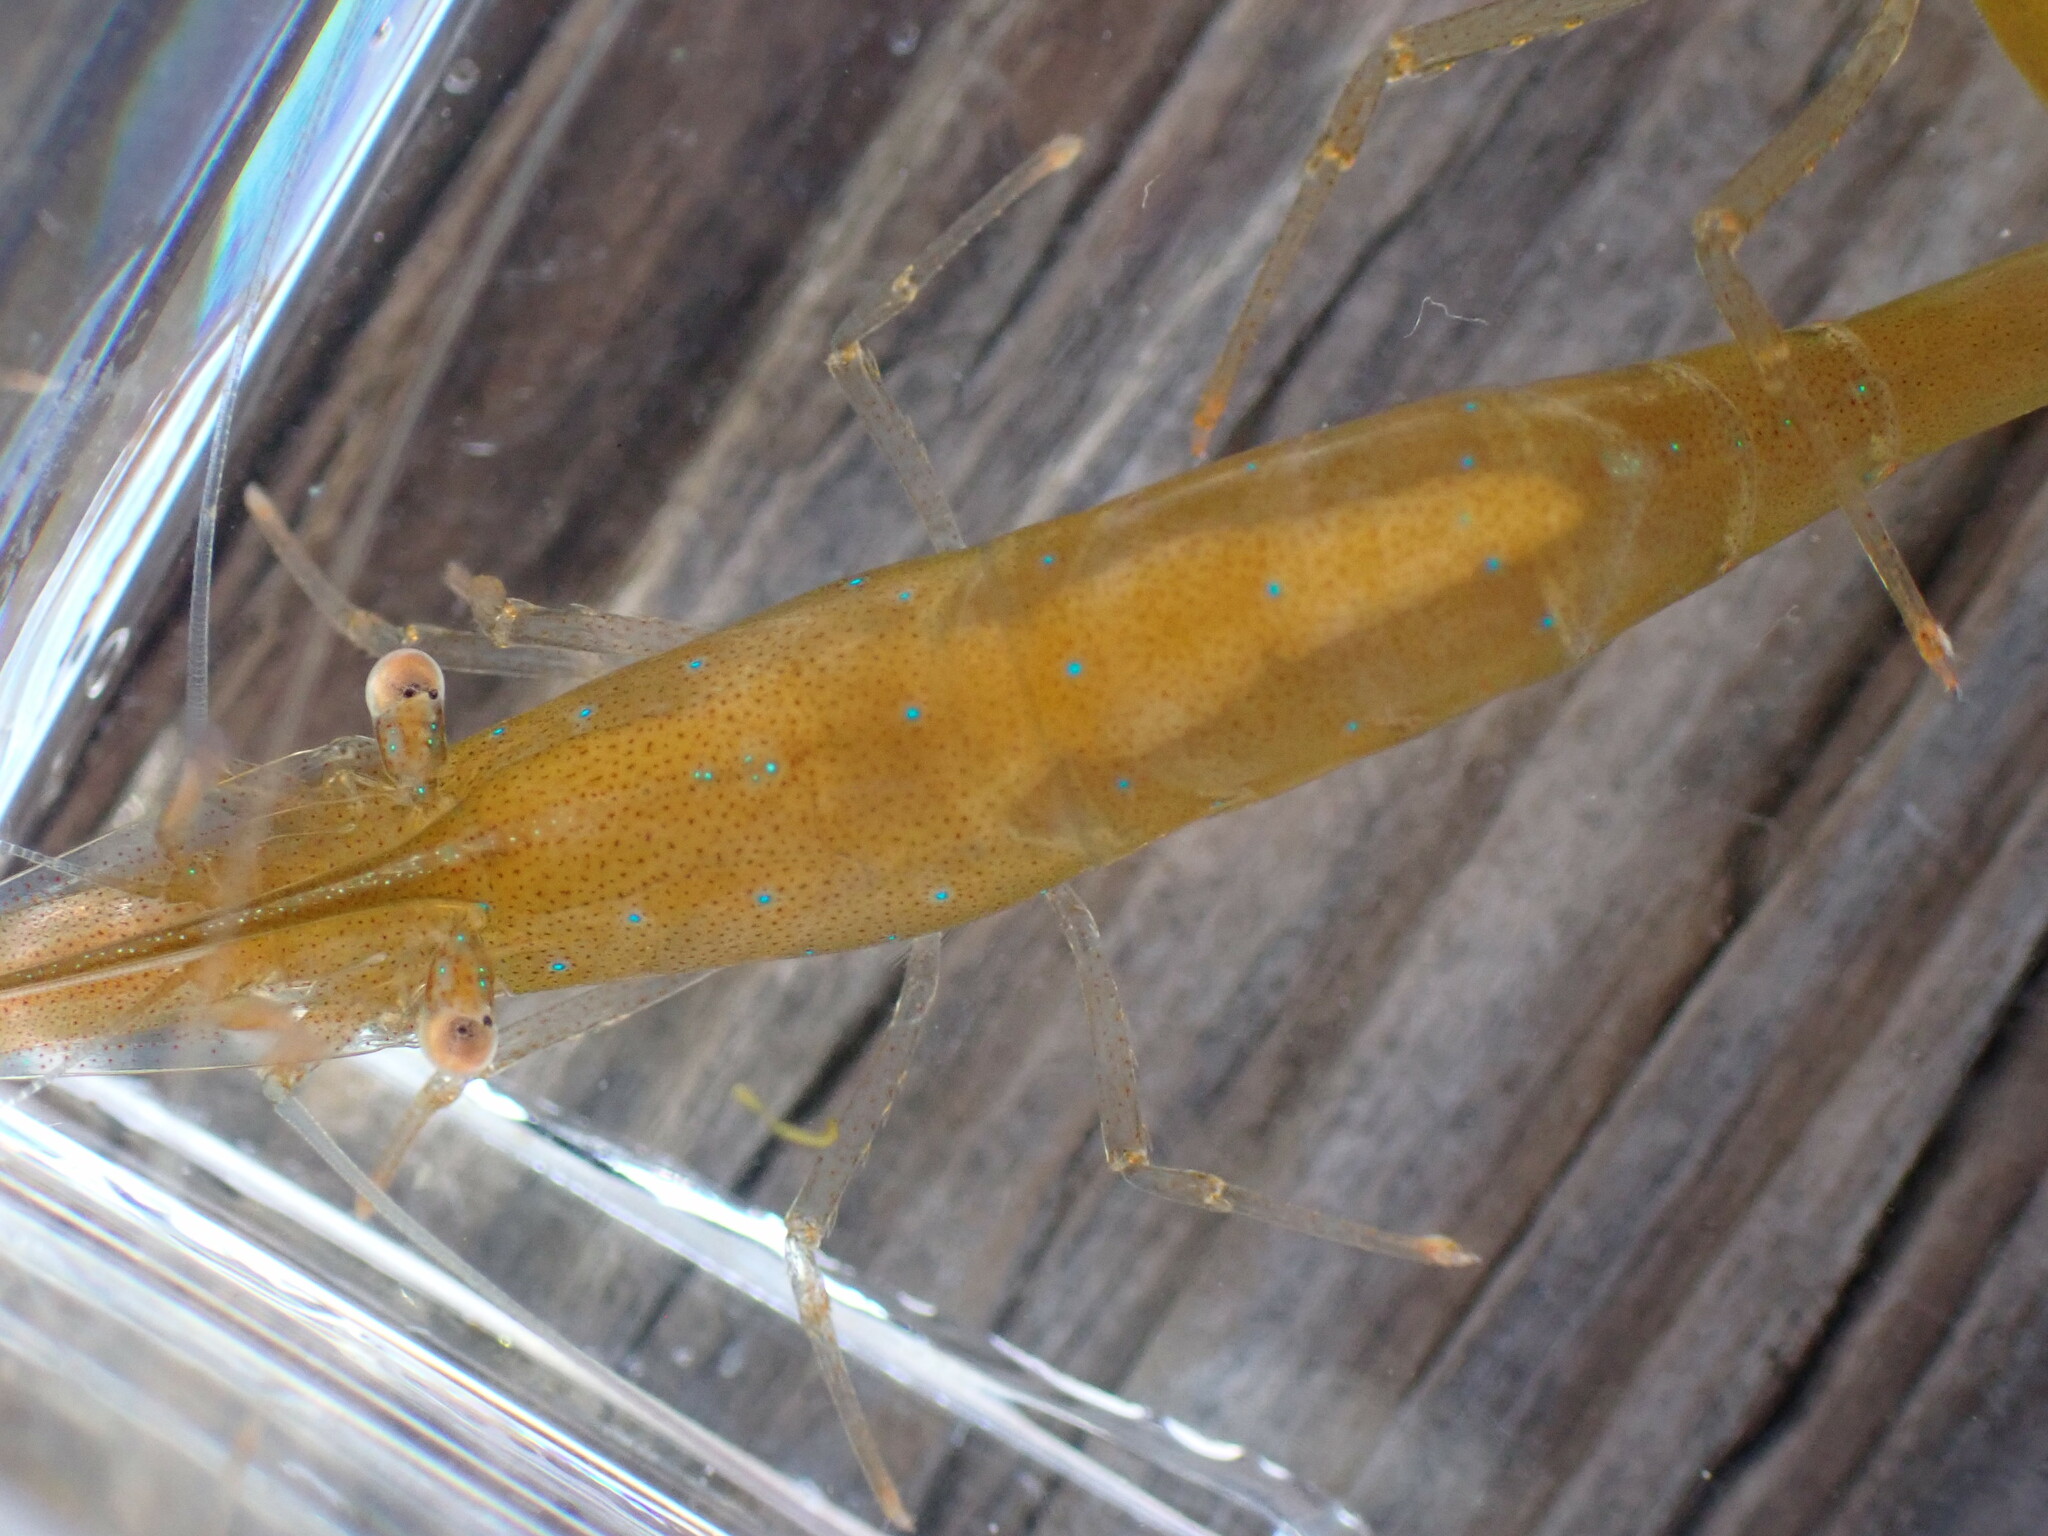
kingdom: Animalia
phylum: Arthropoda
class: Malacostraca
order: Decapoda
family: Thoridae
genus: Heptacarpus
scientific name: Heptacarpus stylus
